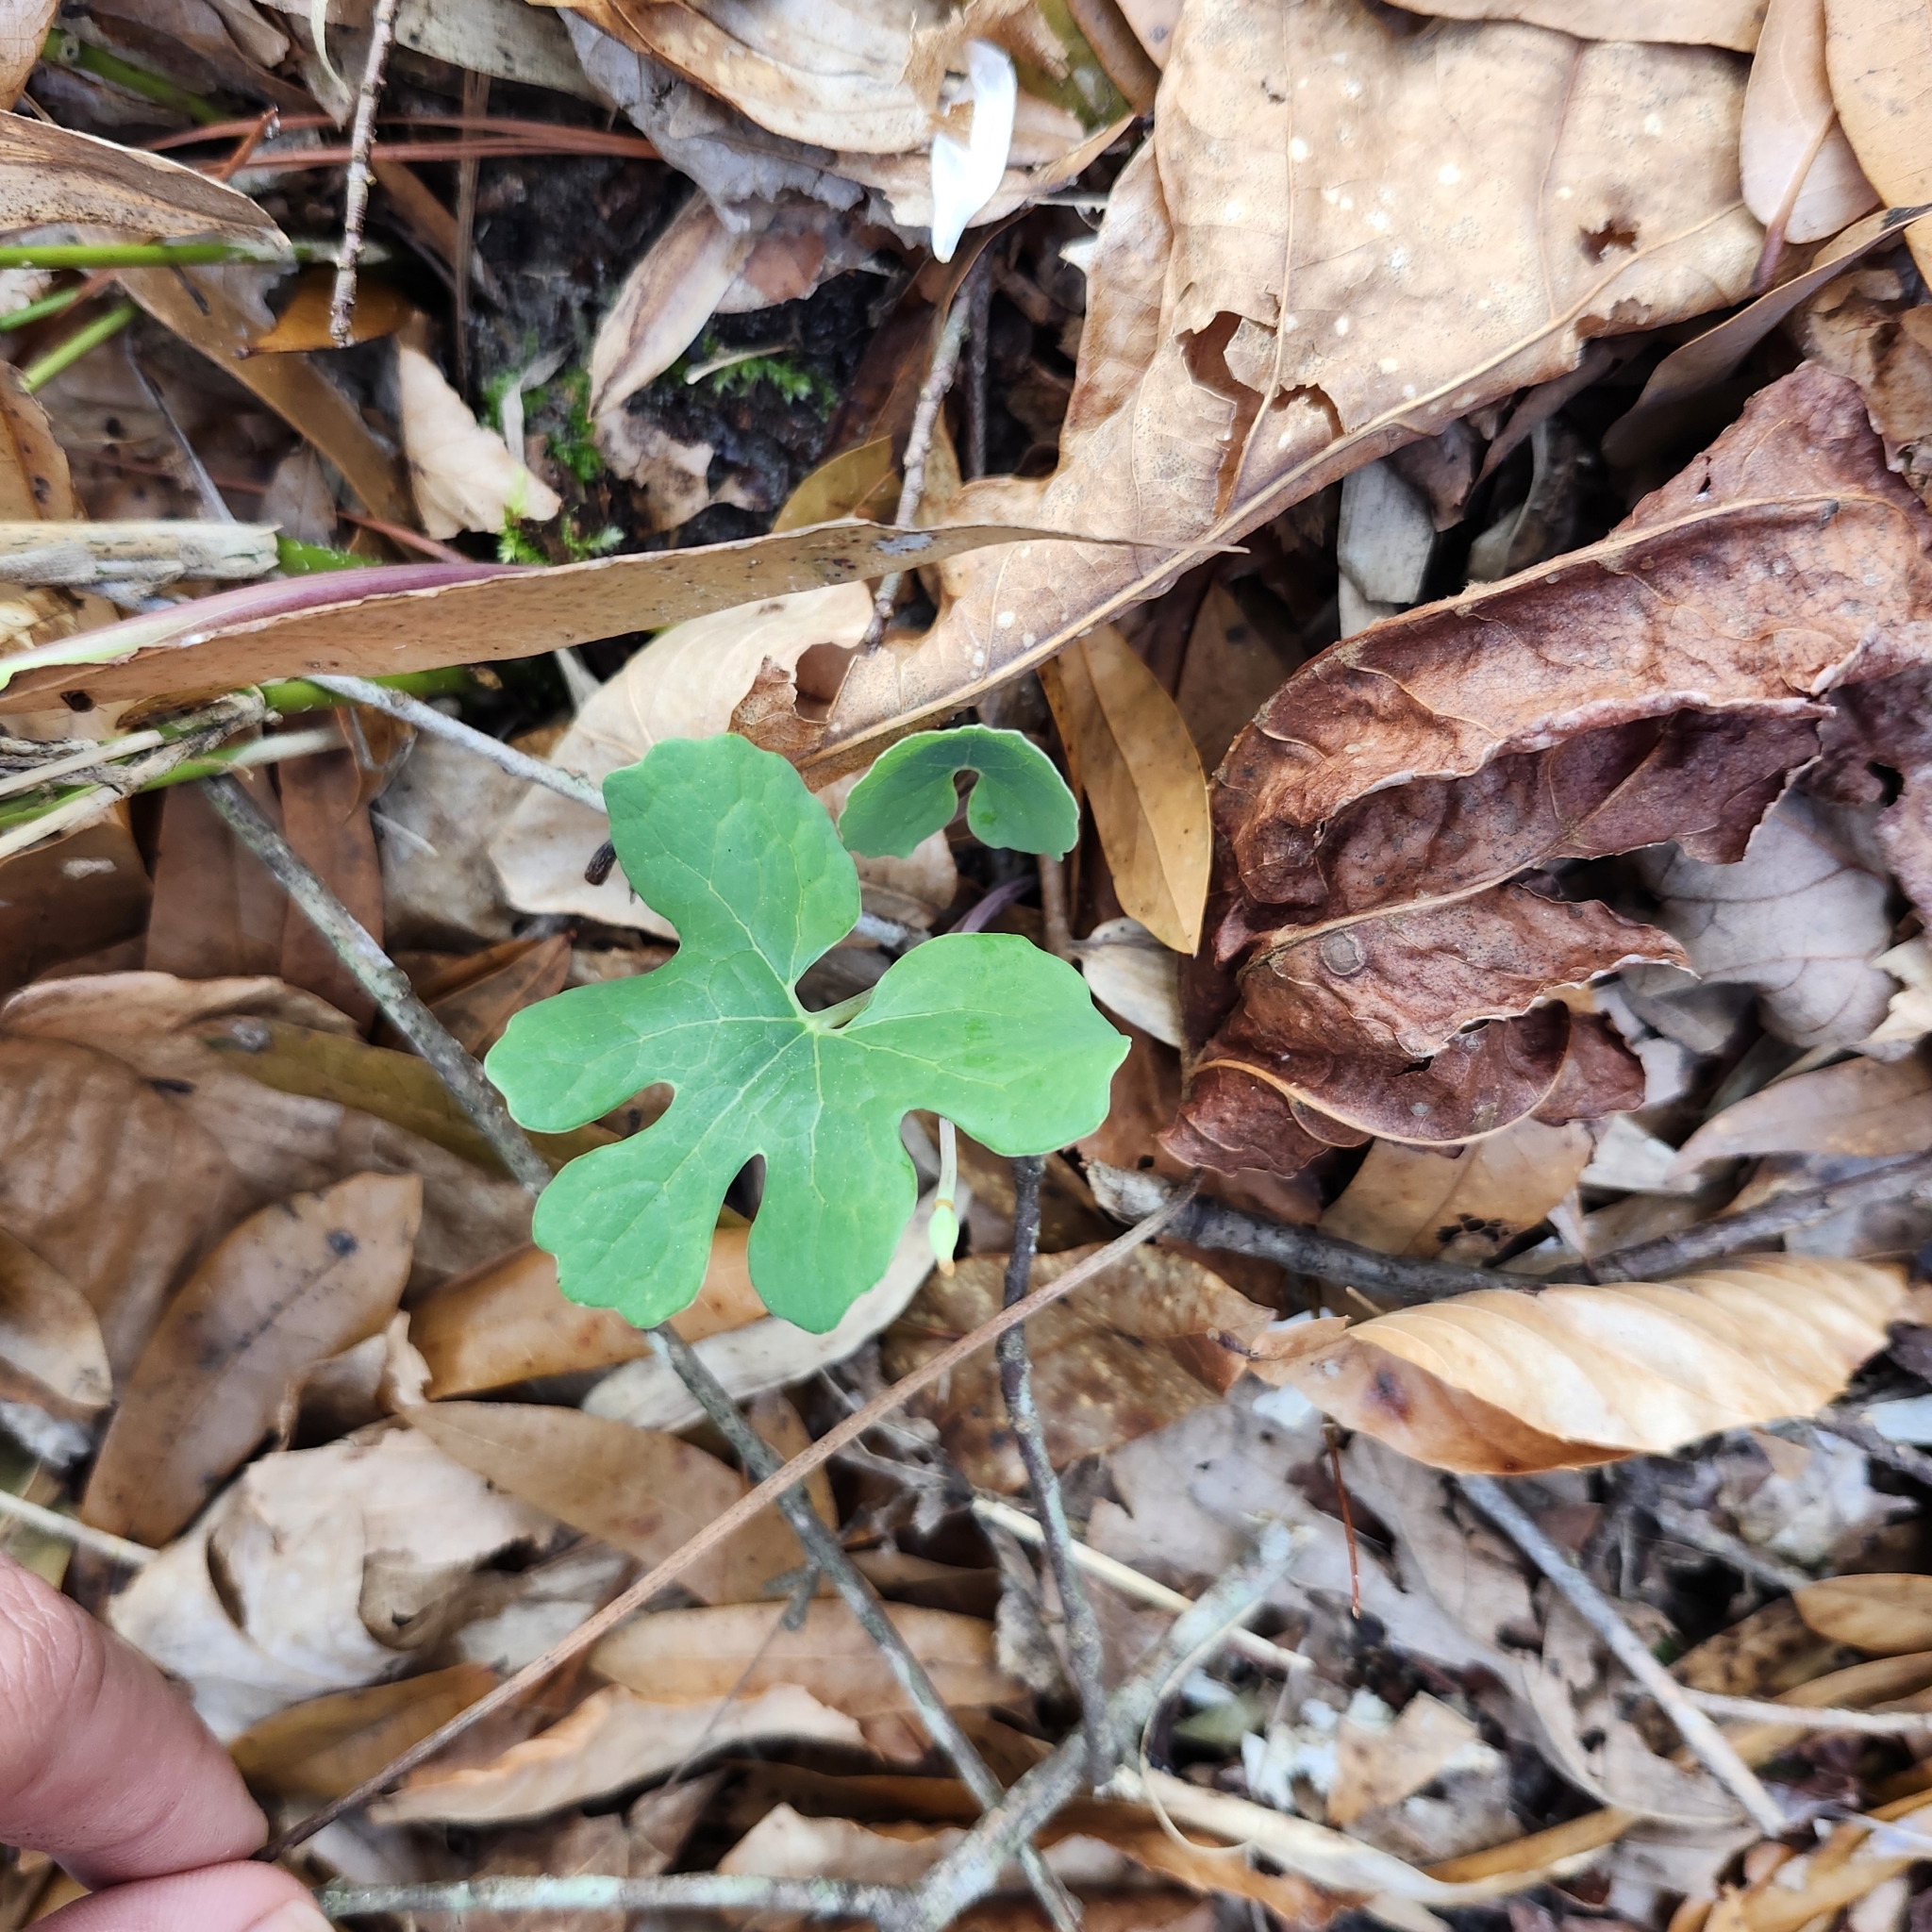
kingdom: Plantae
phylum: Tracheophyta
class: Magnoliopsida
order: Ranunculales
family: Papaveraceae
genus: Sanguinaria
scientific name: Sanguinaria canadensis
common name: Bloodroot
